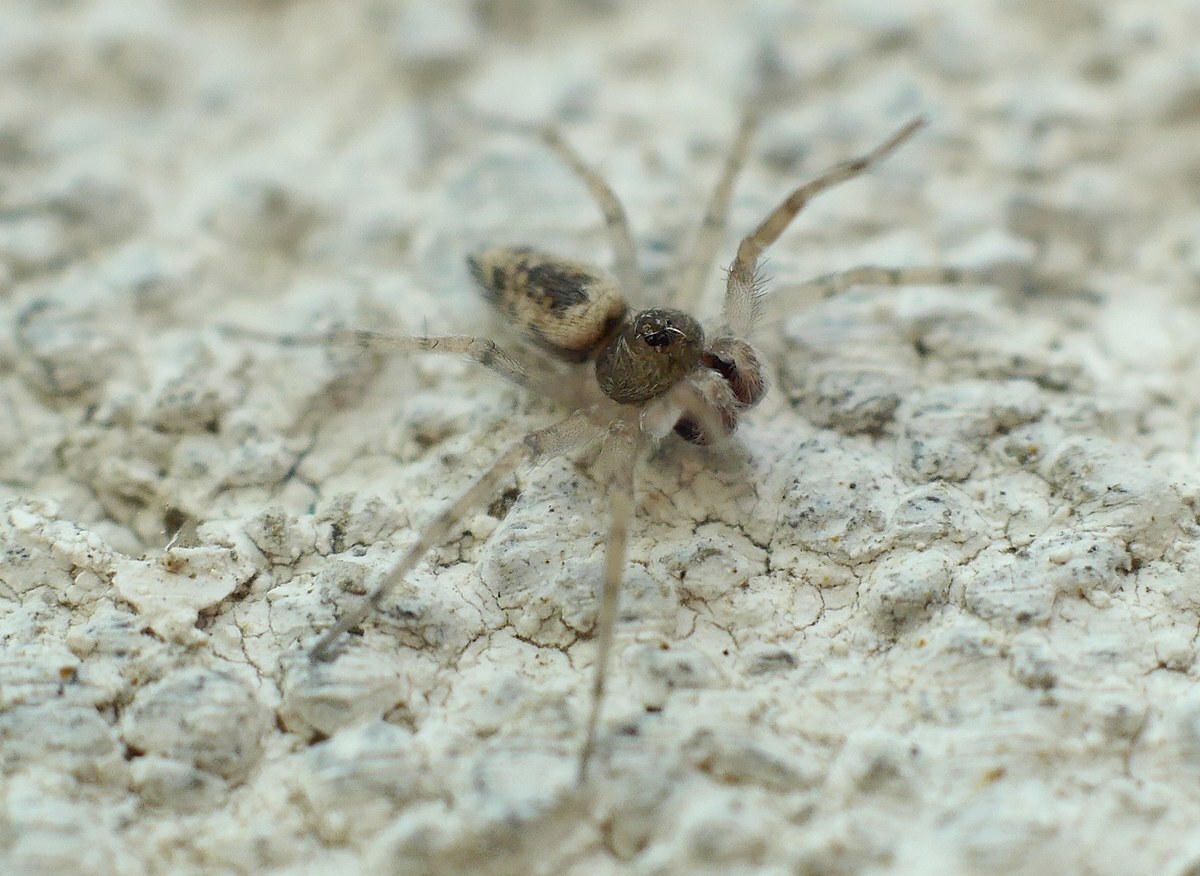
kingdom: Animalia
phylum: Arthropoda
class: Arachnida
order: Araneae
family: Oecobiidae
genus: Oecobius
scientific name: Oecobius maculatus
